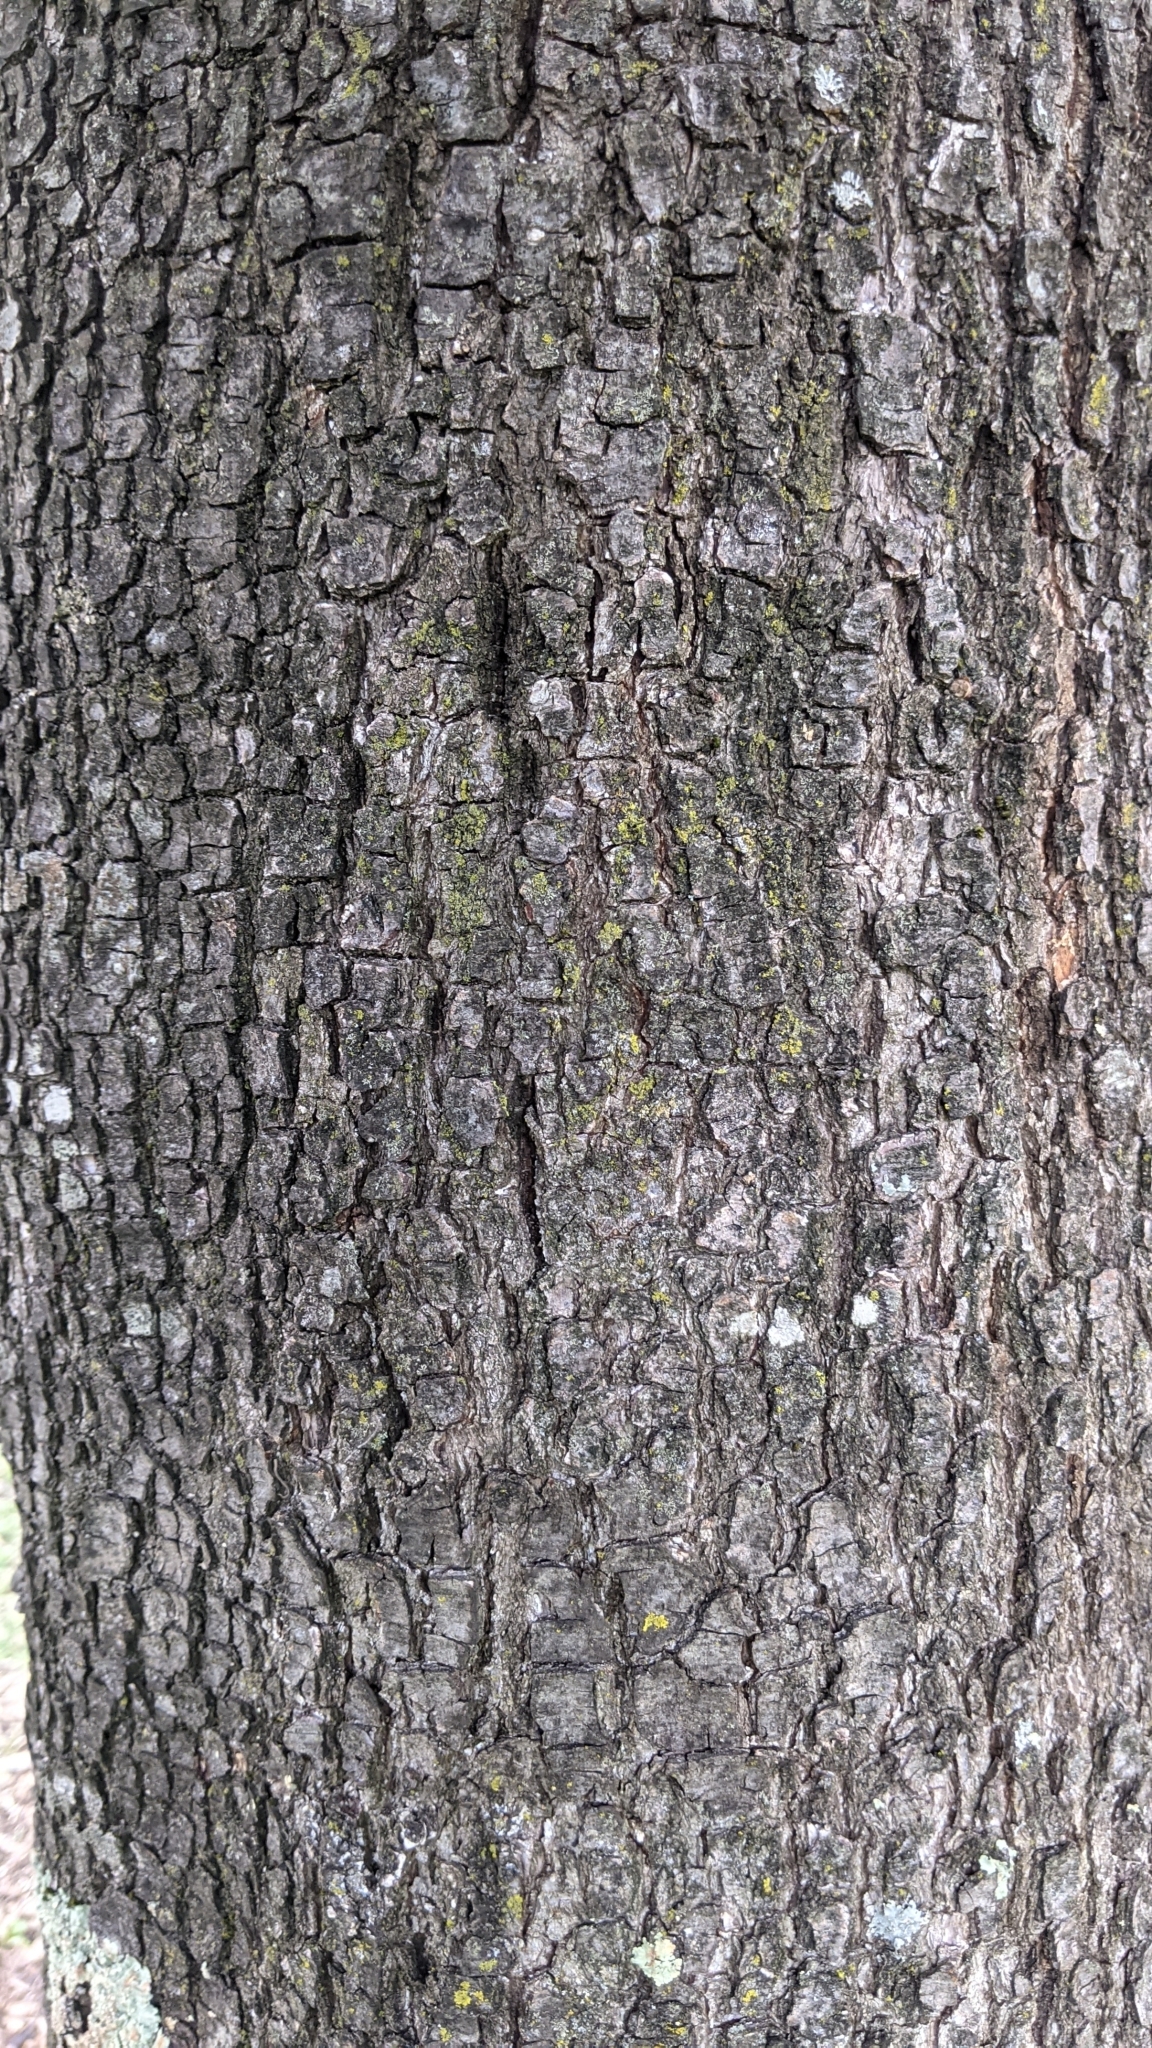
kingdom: Plantae
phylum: Tracheophyta
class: Magnoliopsida
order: Fagales
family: Fagaceae
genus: Quercus
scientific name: Quercus ilex
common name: Evergreen oak
